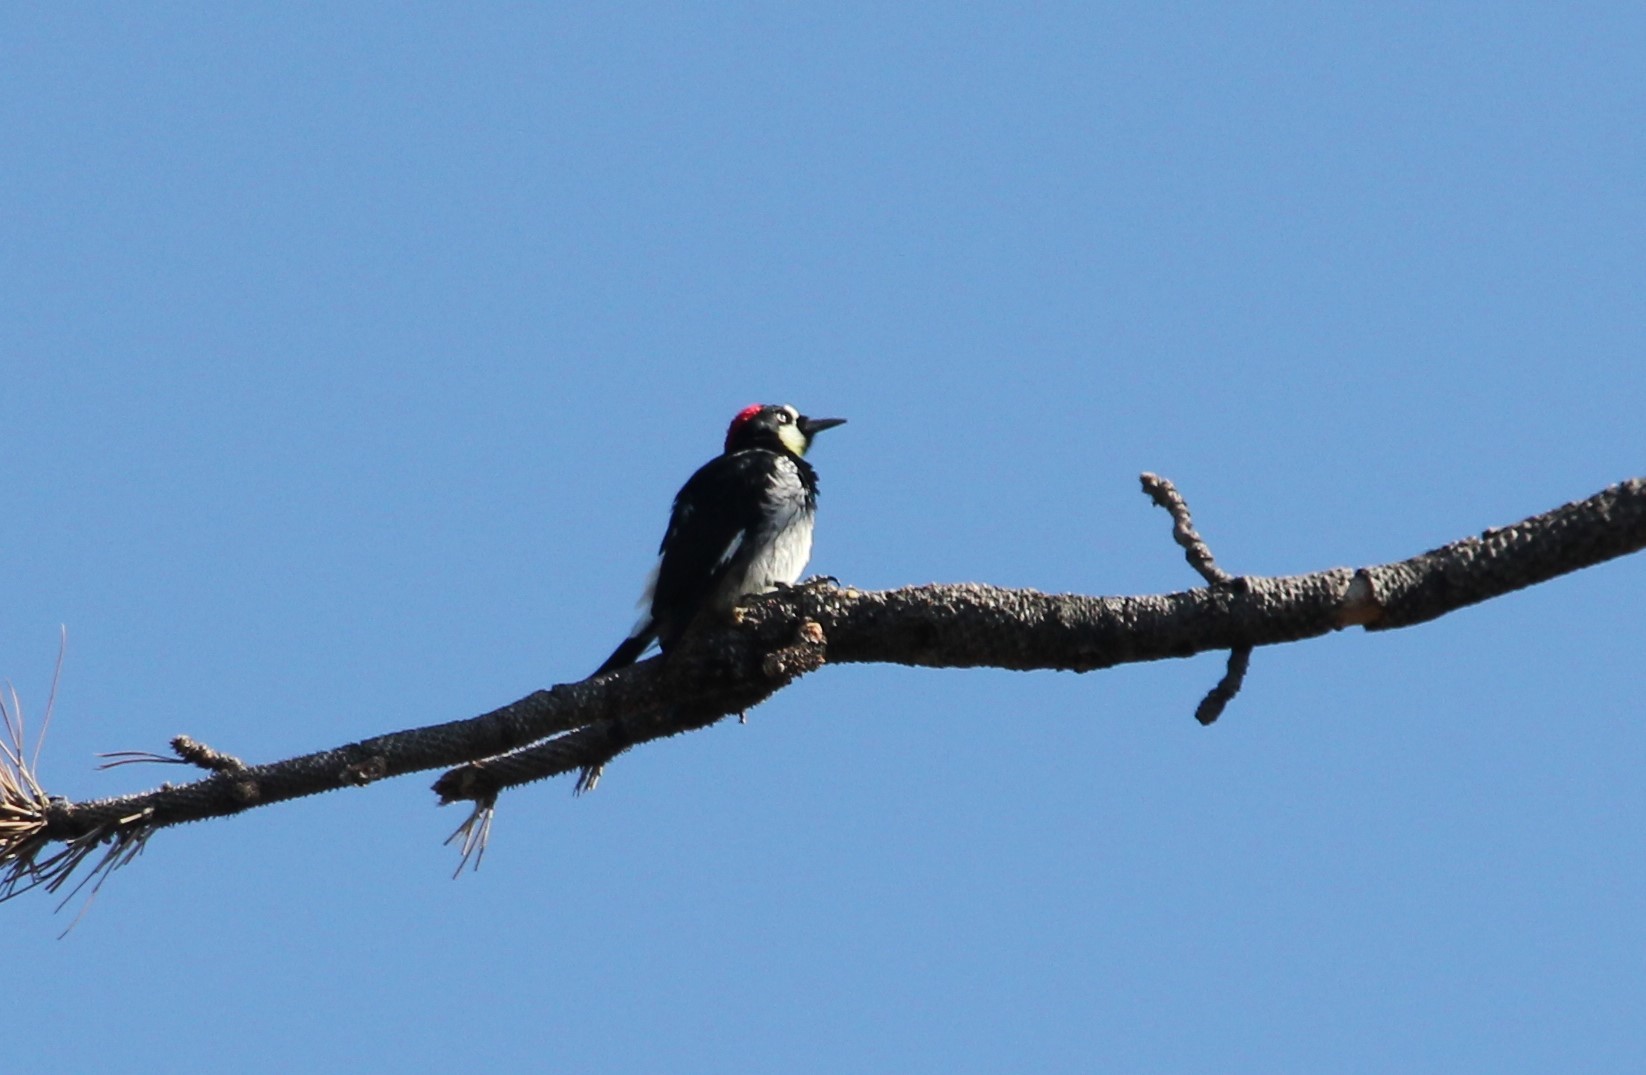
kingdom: Animalia
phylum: Chordata
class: Aves
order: Piciformes
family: Picidae
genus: Melanerpes
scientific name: Melanerpes formicivorus
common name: Acorn woodpecker
